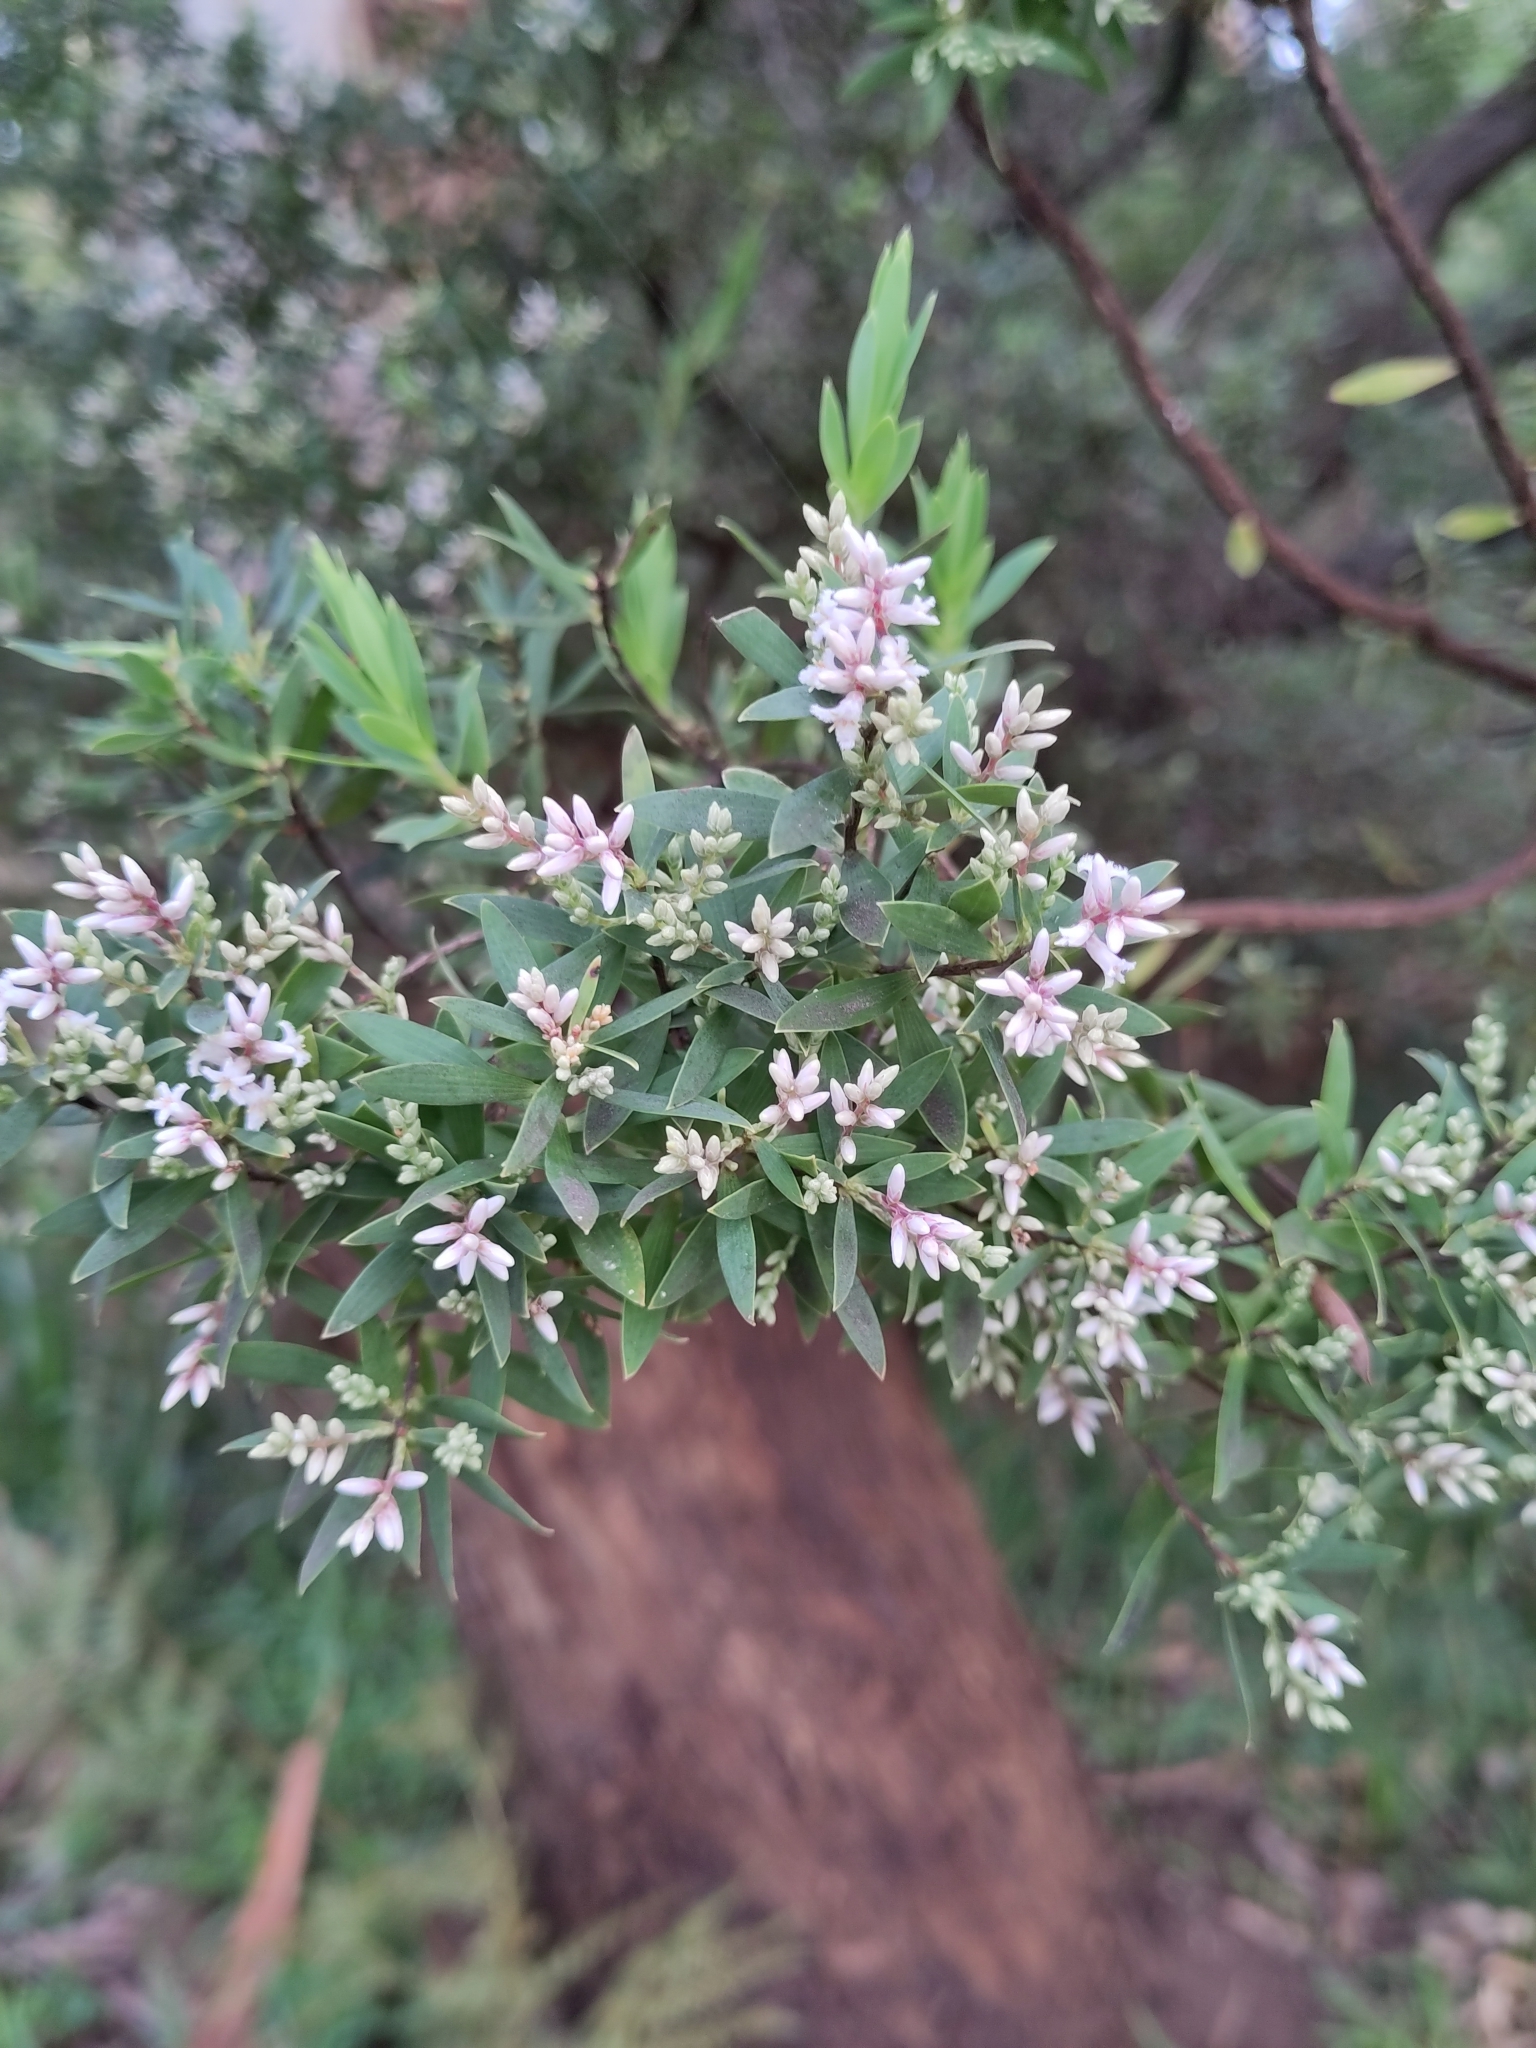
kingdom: Plantae
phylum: Tracheophyta
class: Magnoliopsida
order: Ericales
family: Ericaceae
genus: Leptecophylla
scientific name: Leptecophylla parvifolia
